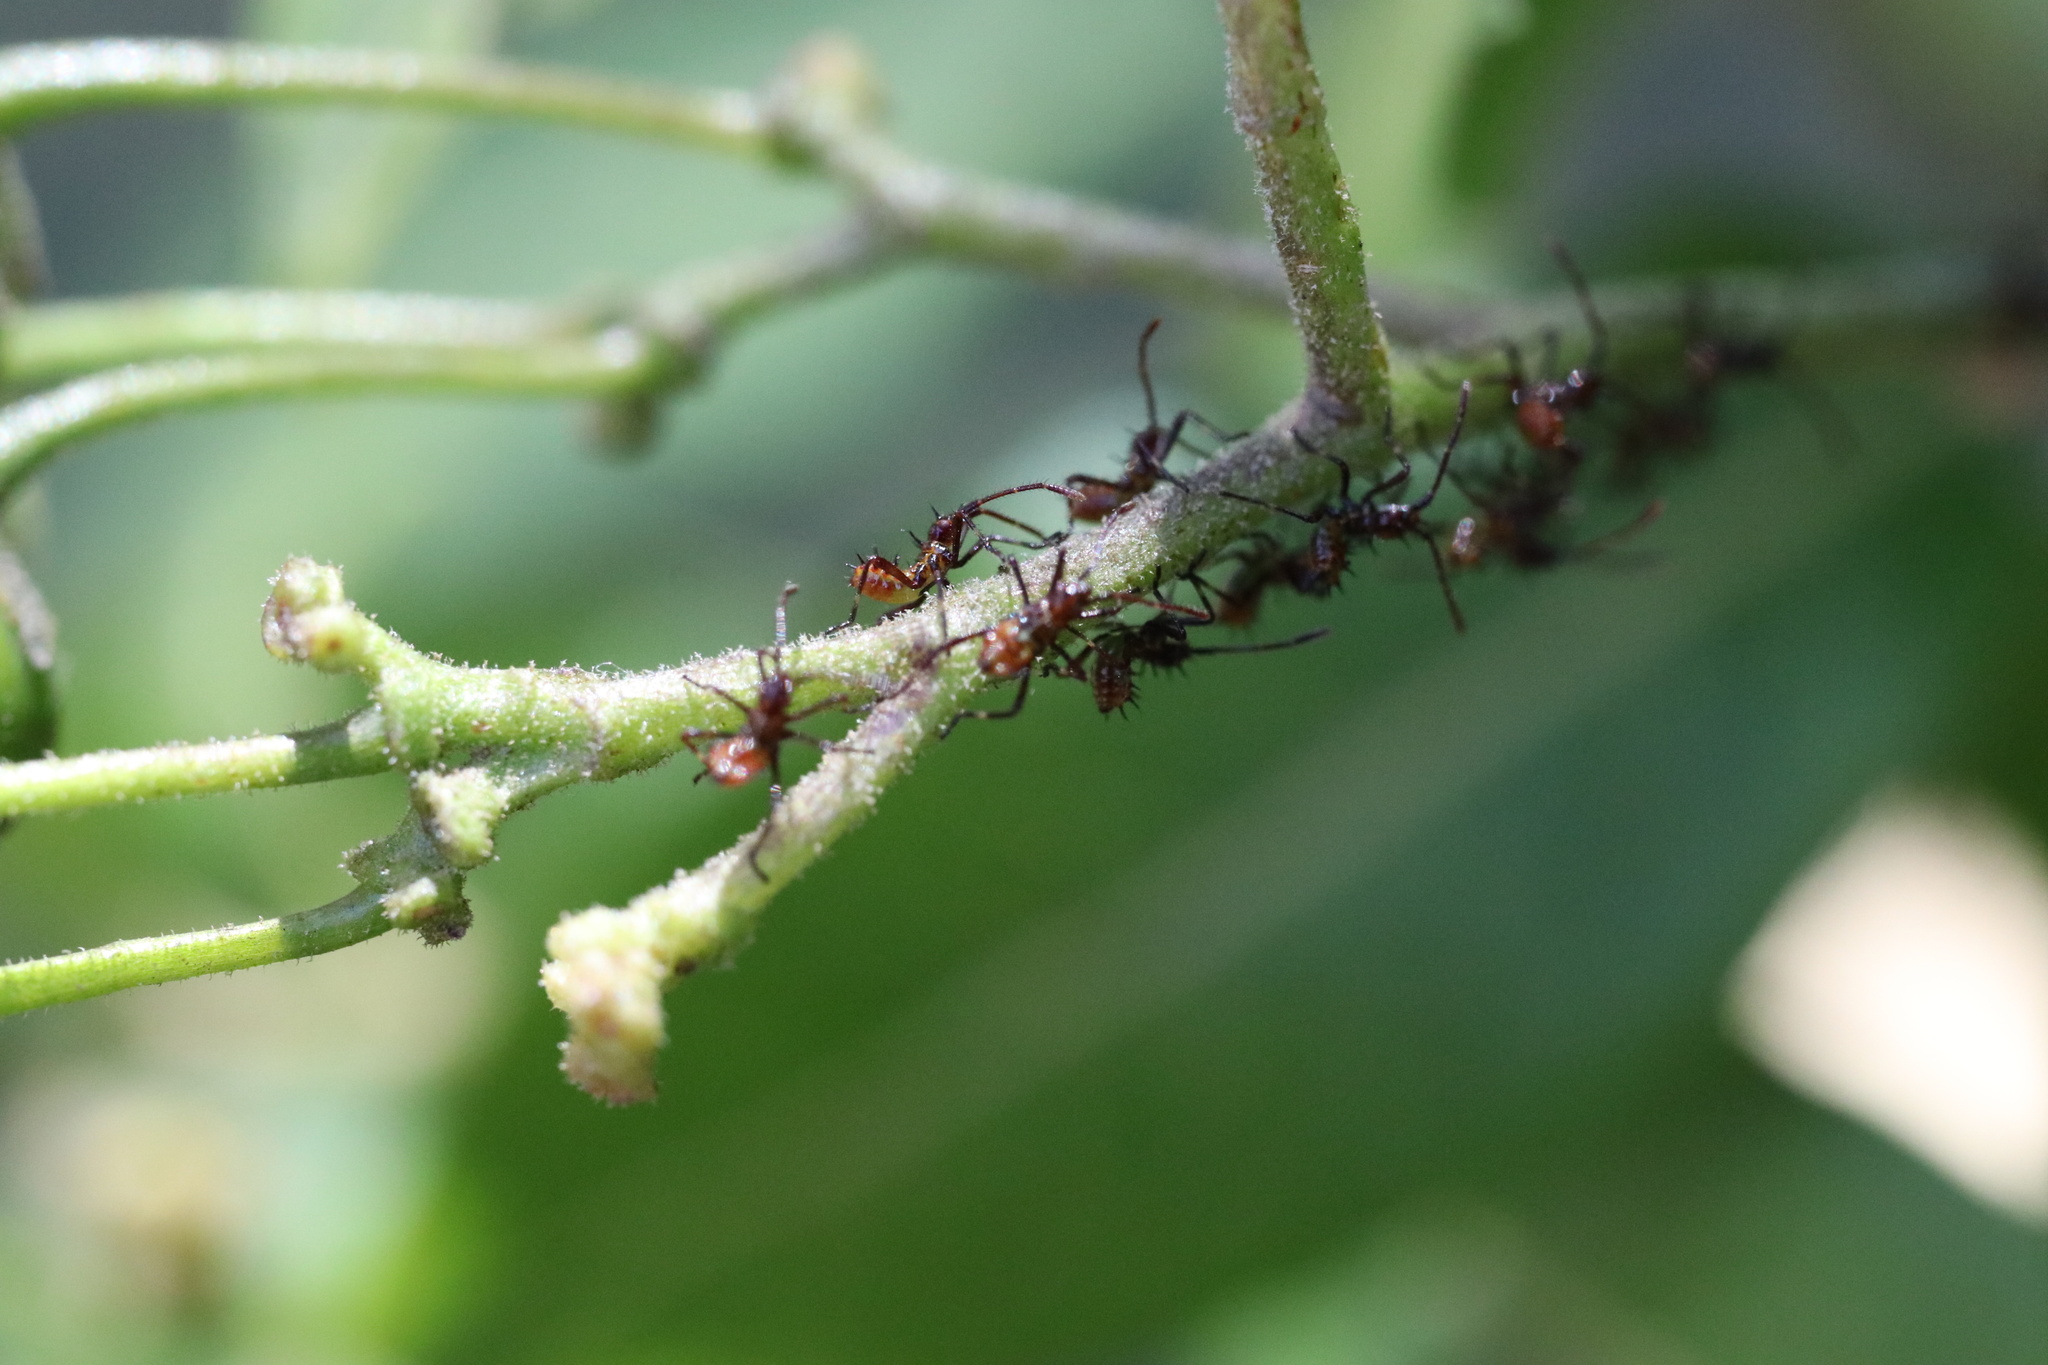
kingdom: Animalia
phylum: Arthropoda
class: Insecta
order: Hemiptera
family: Coreidae
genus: Leptoglossus
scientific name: Leptoglossus chilensis
